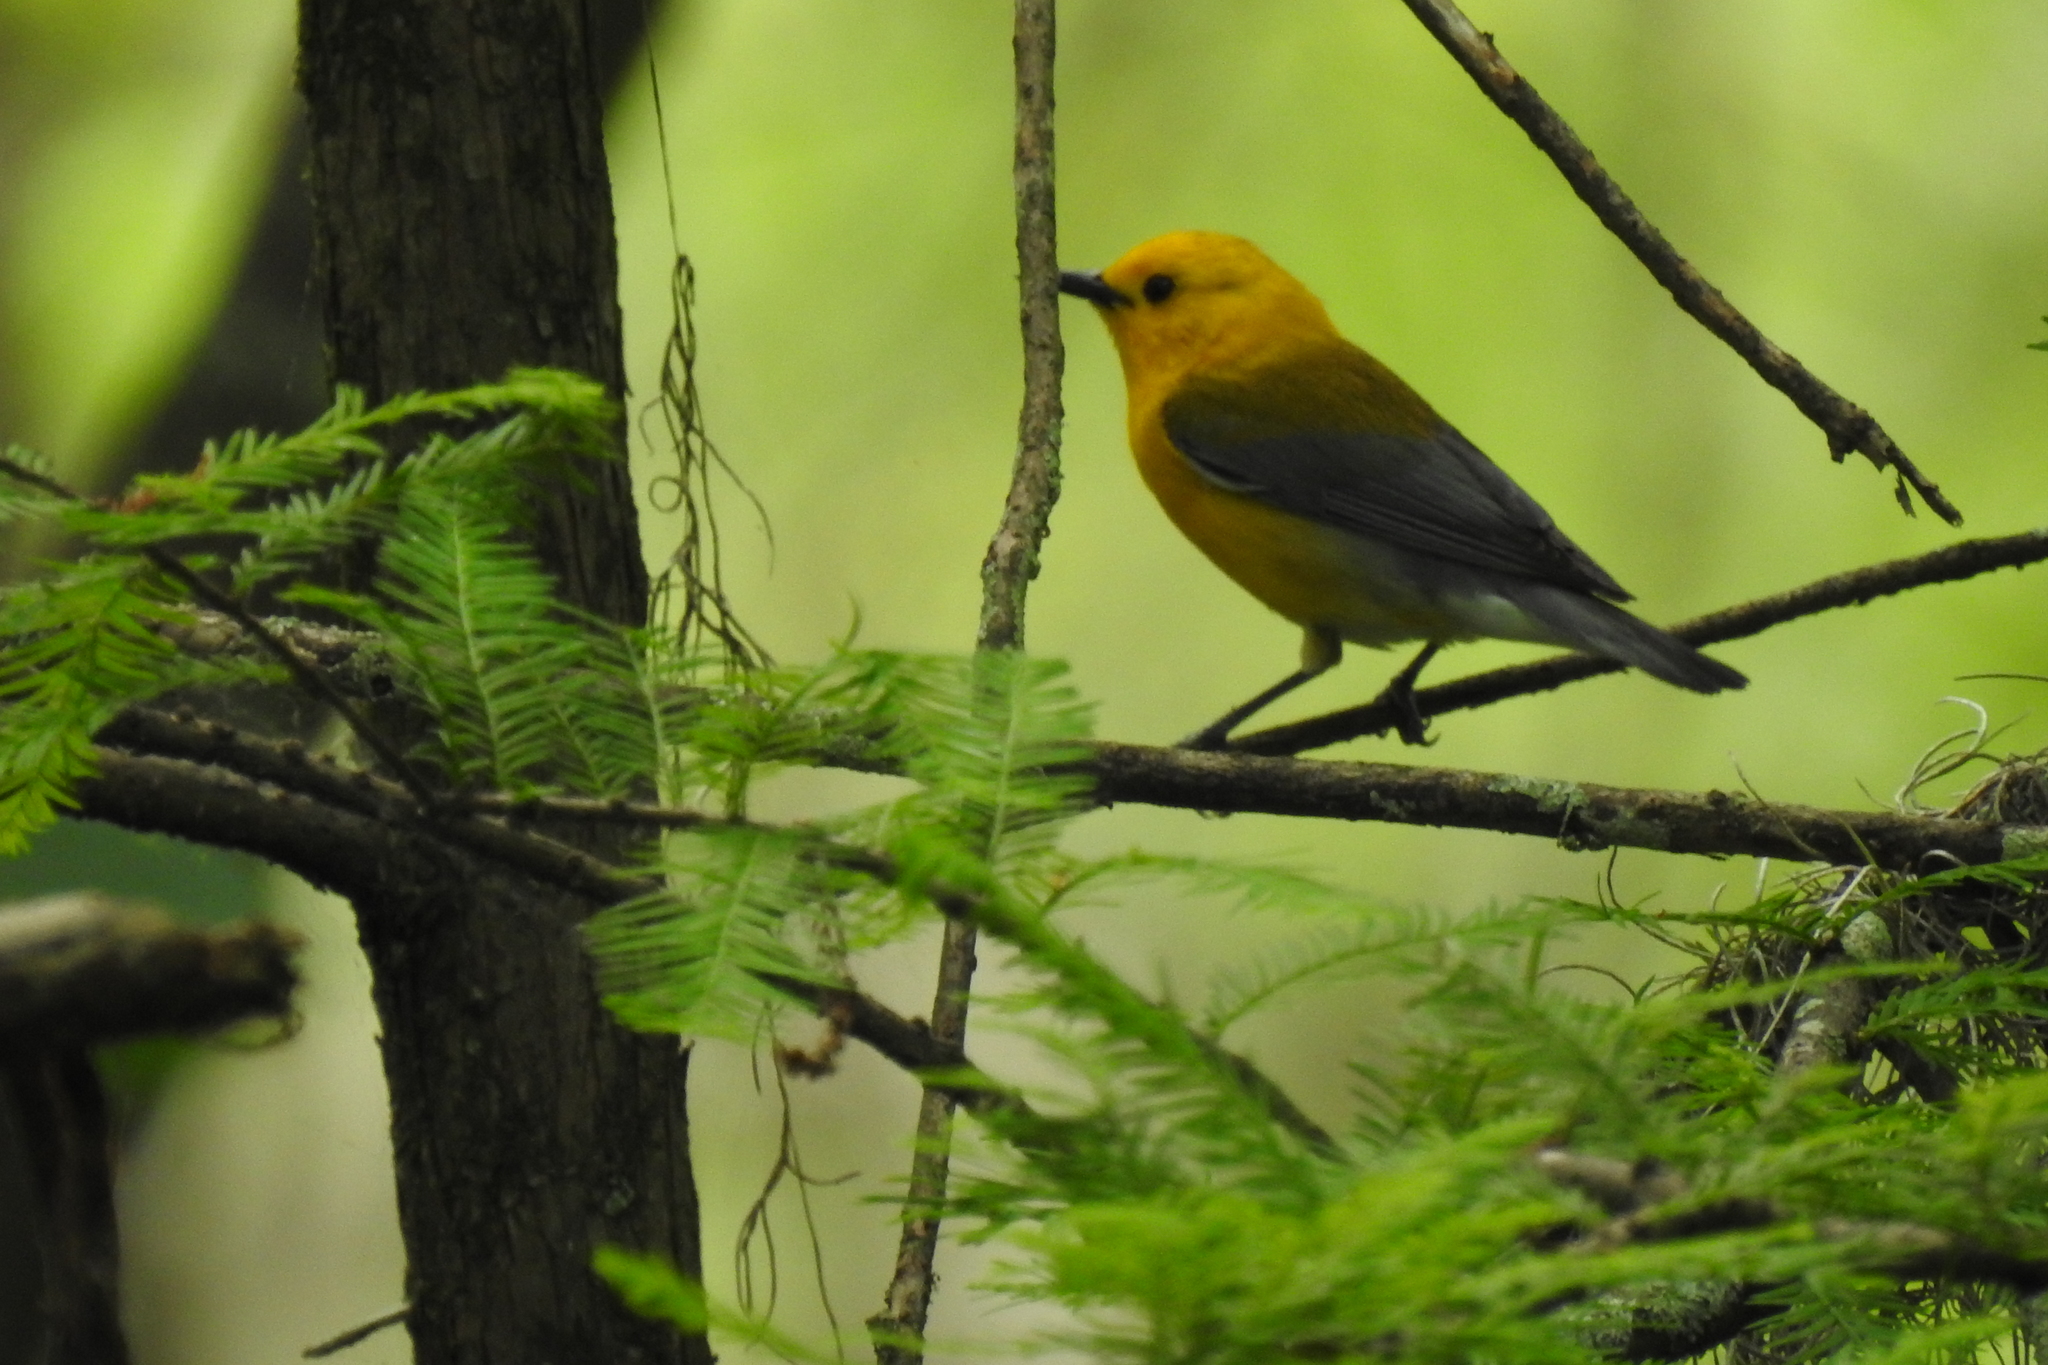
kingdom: Animalia
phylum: Chordata
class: Aves
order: Passeriformes
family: Parulidae
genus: Protonotaria
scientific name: Protonotaria citrea
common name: Prothonotary warbler
